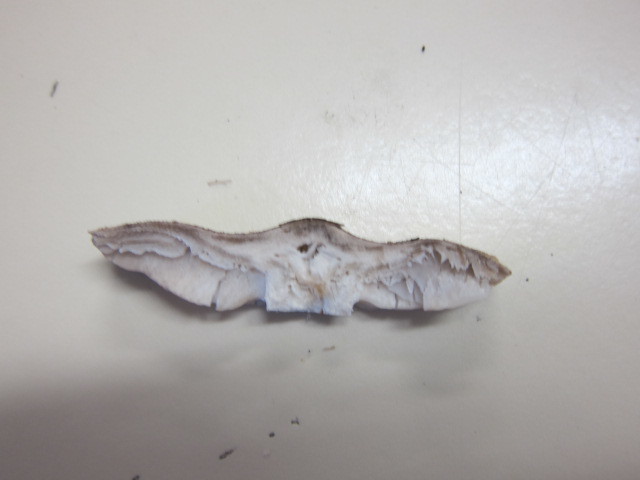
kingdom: Fungi
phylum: Basidiomycota
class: Agaricomycetes
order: Agaricales
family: Tricholomataceae
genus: Tricholoma
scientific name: Tricholoma terreum
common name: Grey knight
